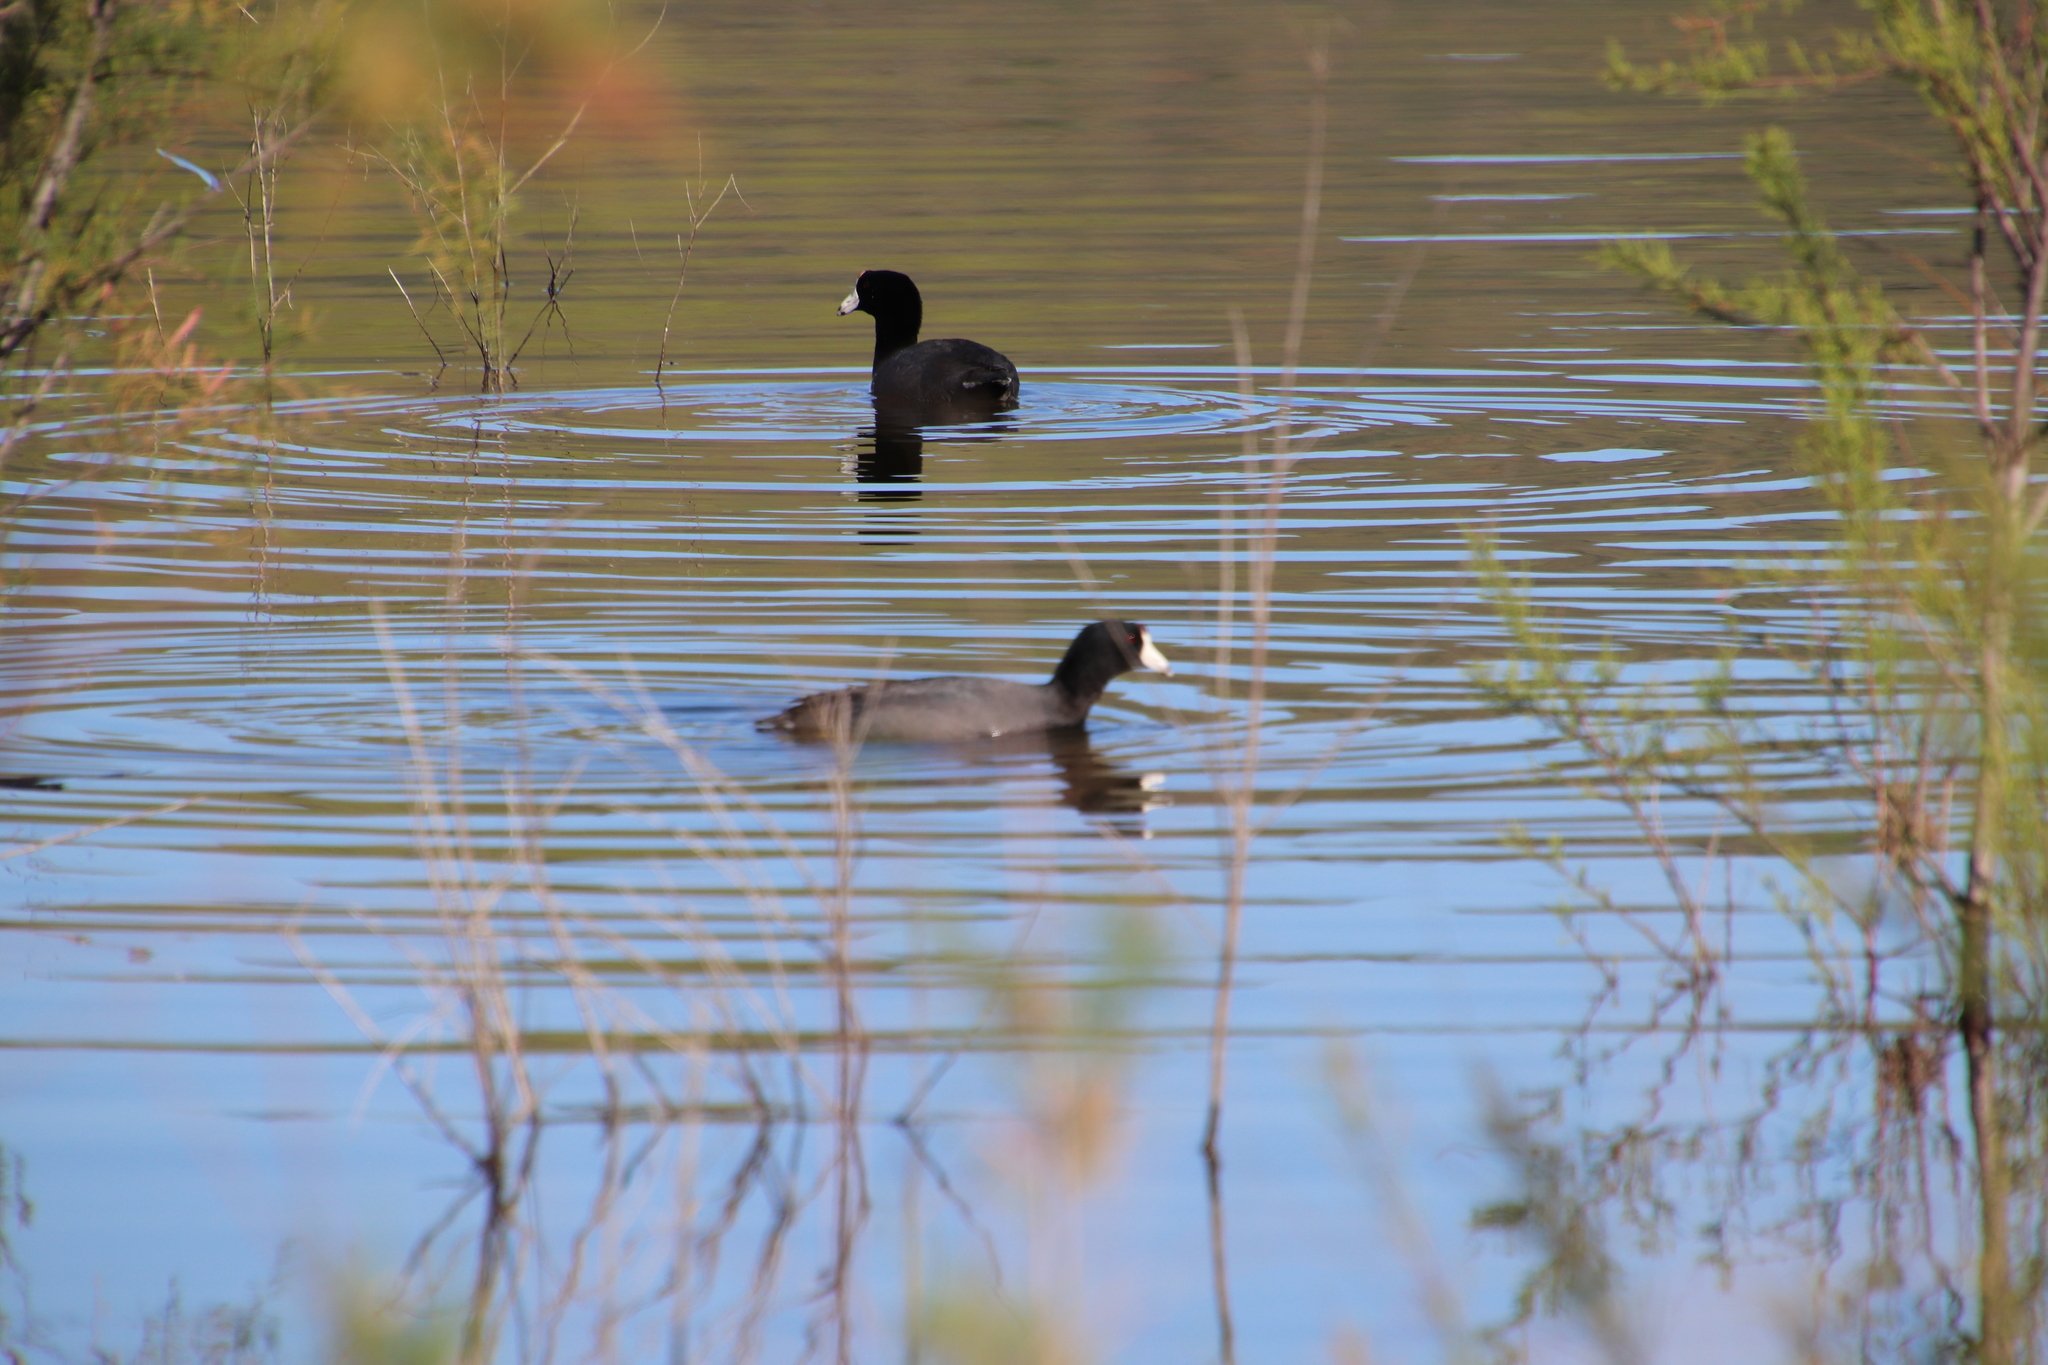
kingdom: Animalia
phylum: Chordata
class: Aves
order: Gruiformes
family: Rallidae
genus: Fulica
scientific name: Fulica americana
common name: American coot
